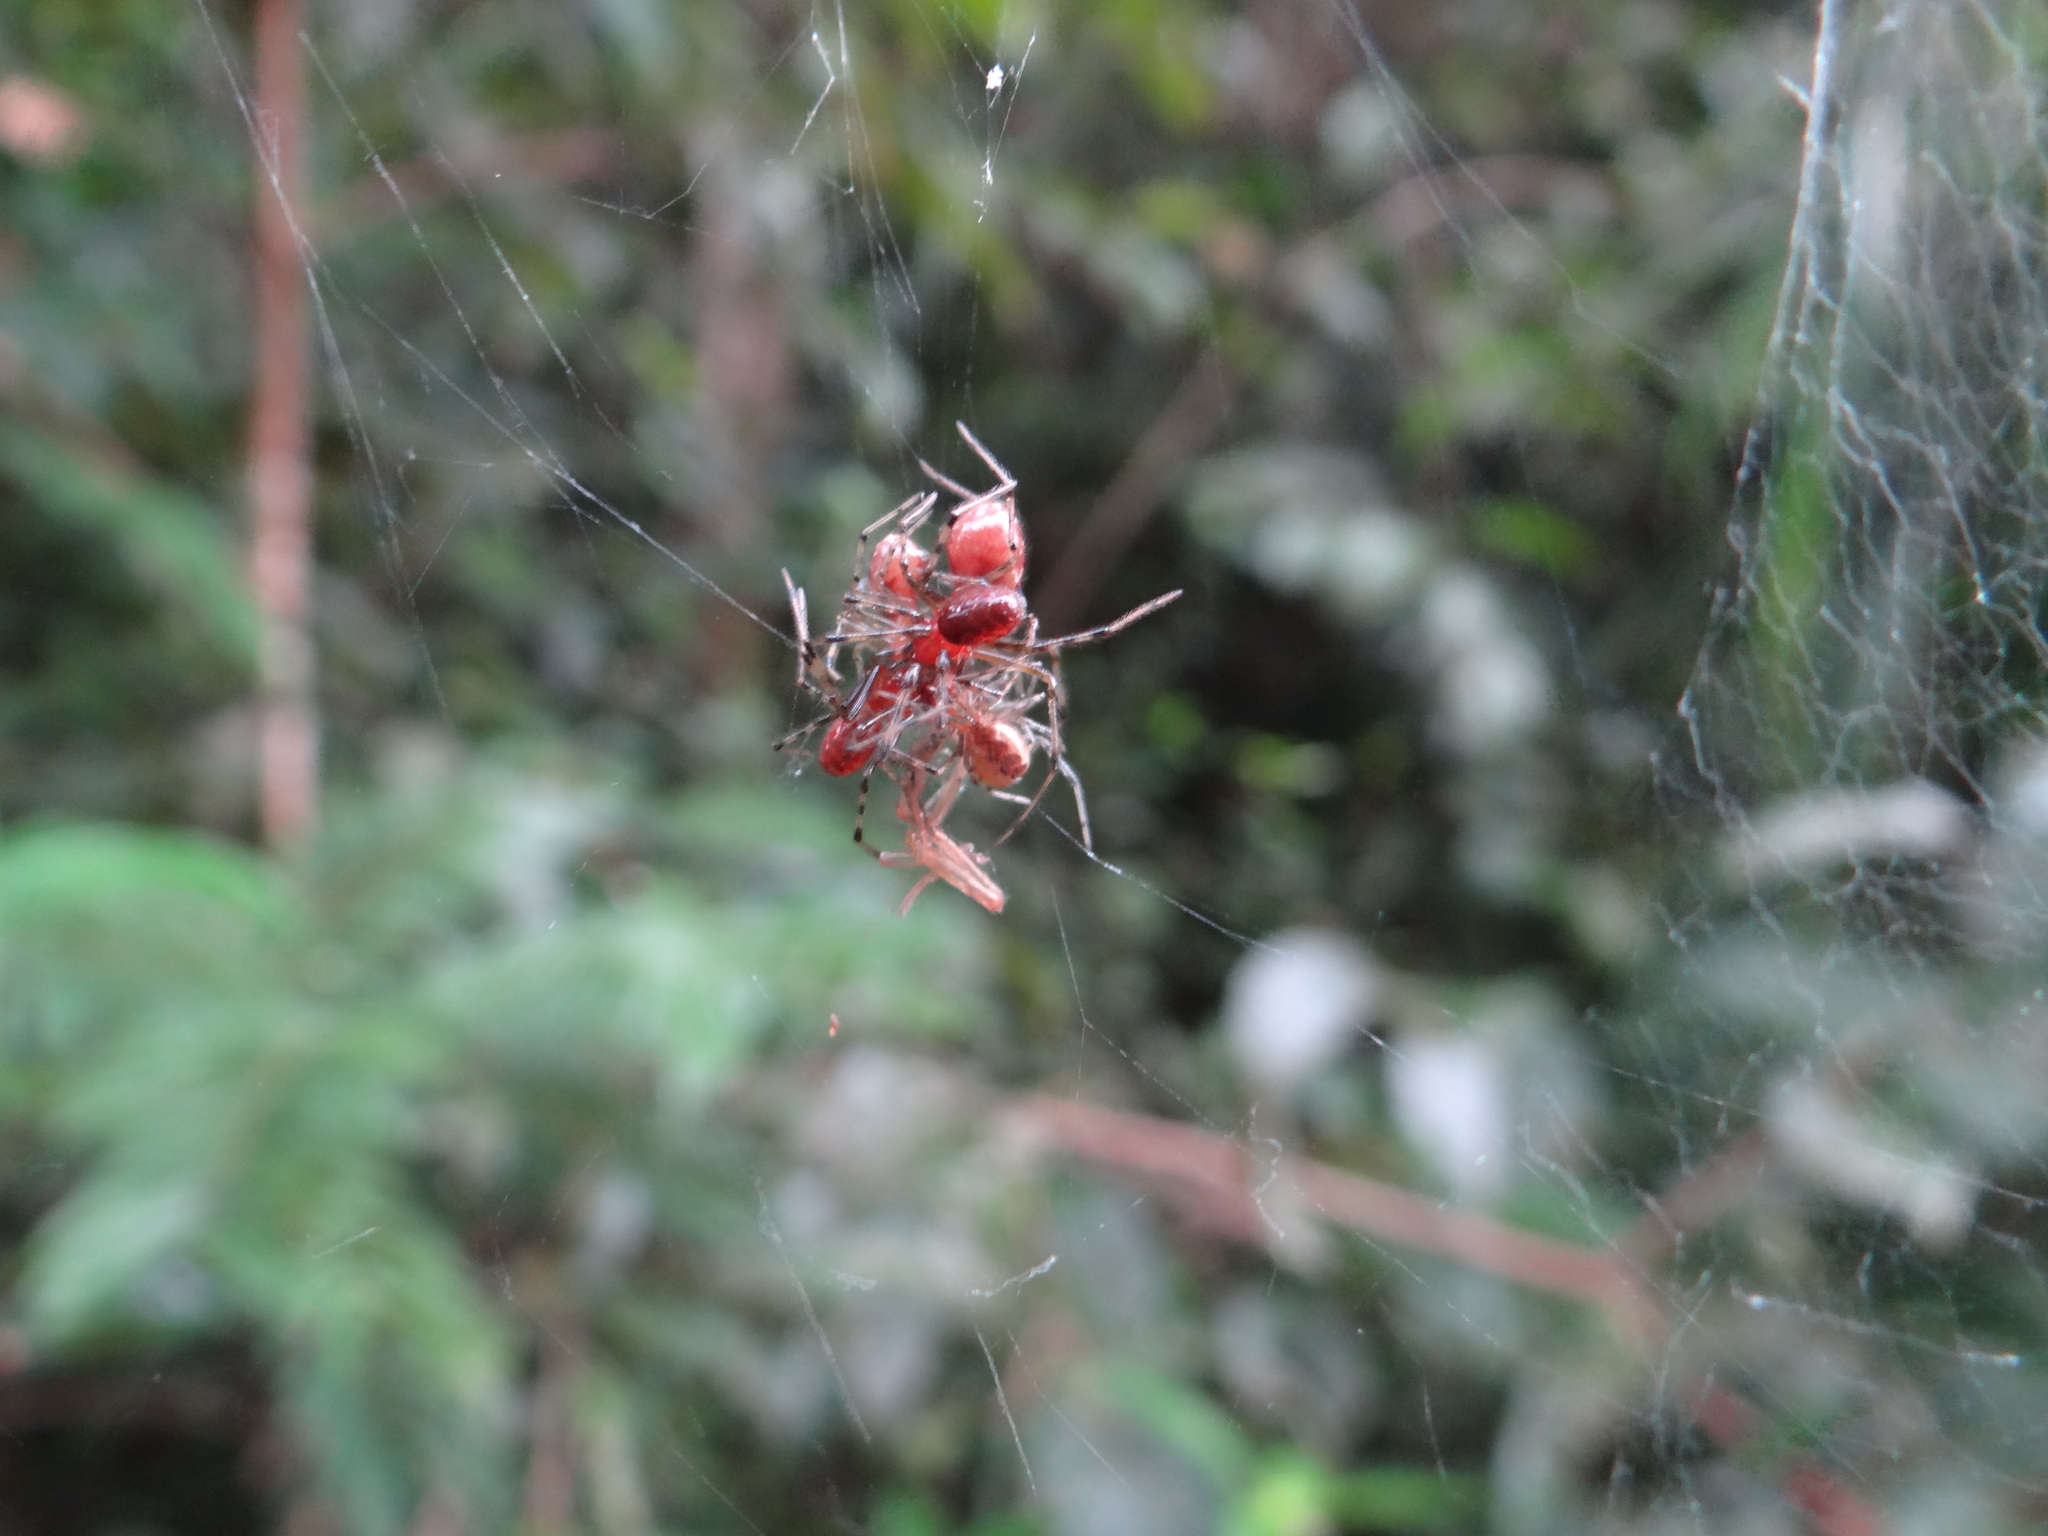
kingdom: Animalia
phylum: Arthropoda
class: Arachnida
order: Araneae
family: Theridiidae
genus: Anelosimus
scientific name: Anelosimus eximius
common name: Cobweb spiders
